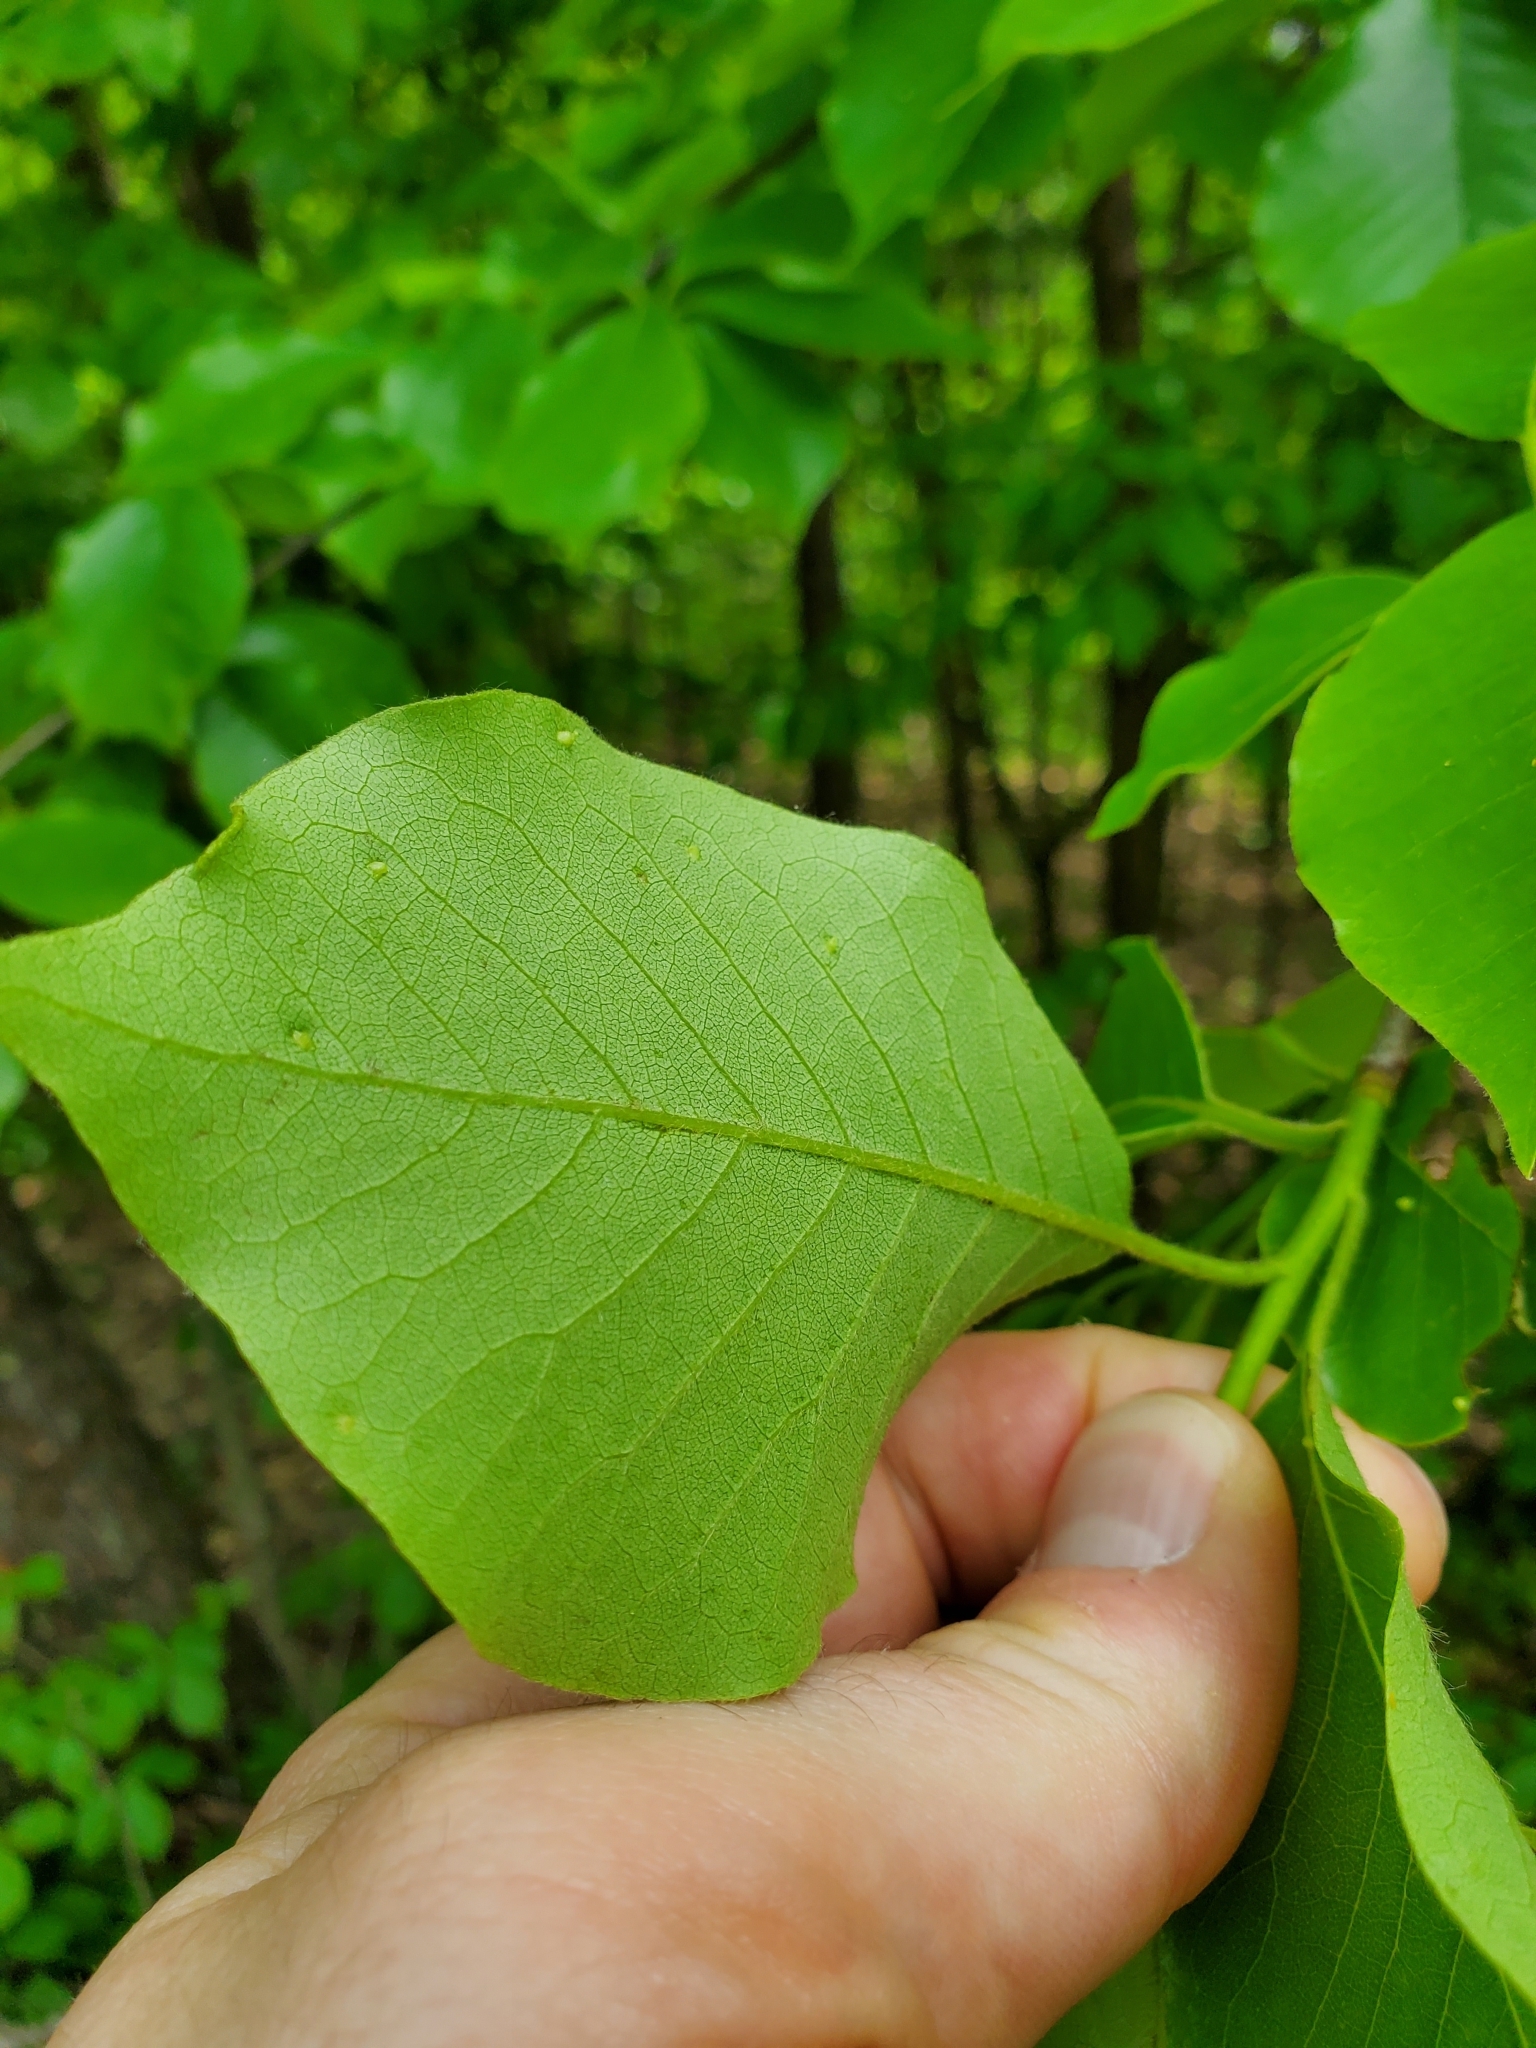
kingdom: Plantae
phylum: Tracheophyta
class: Magnoliopsida
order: Cornales
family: Nyssaceae
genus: Nyssa
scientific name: Nyssa sylvatica
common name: Black tupelo
